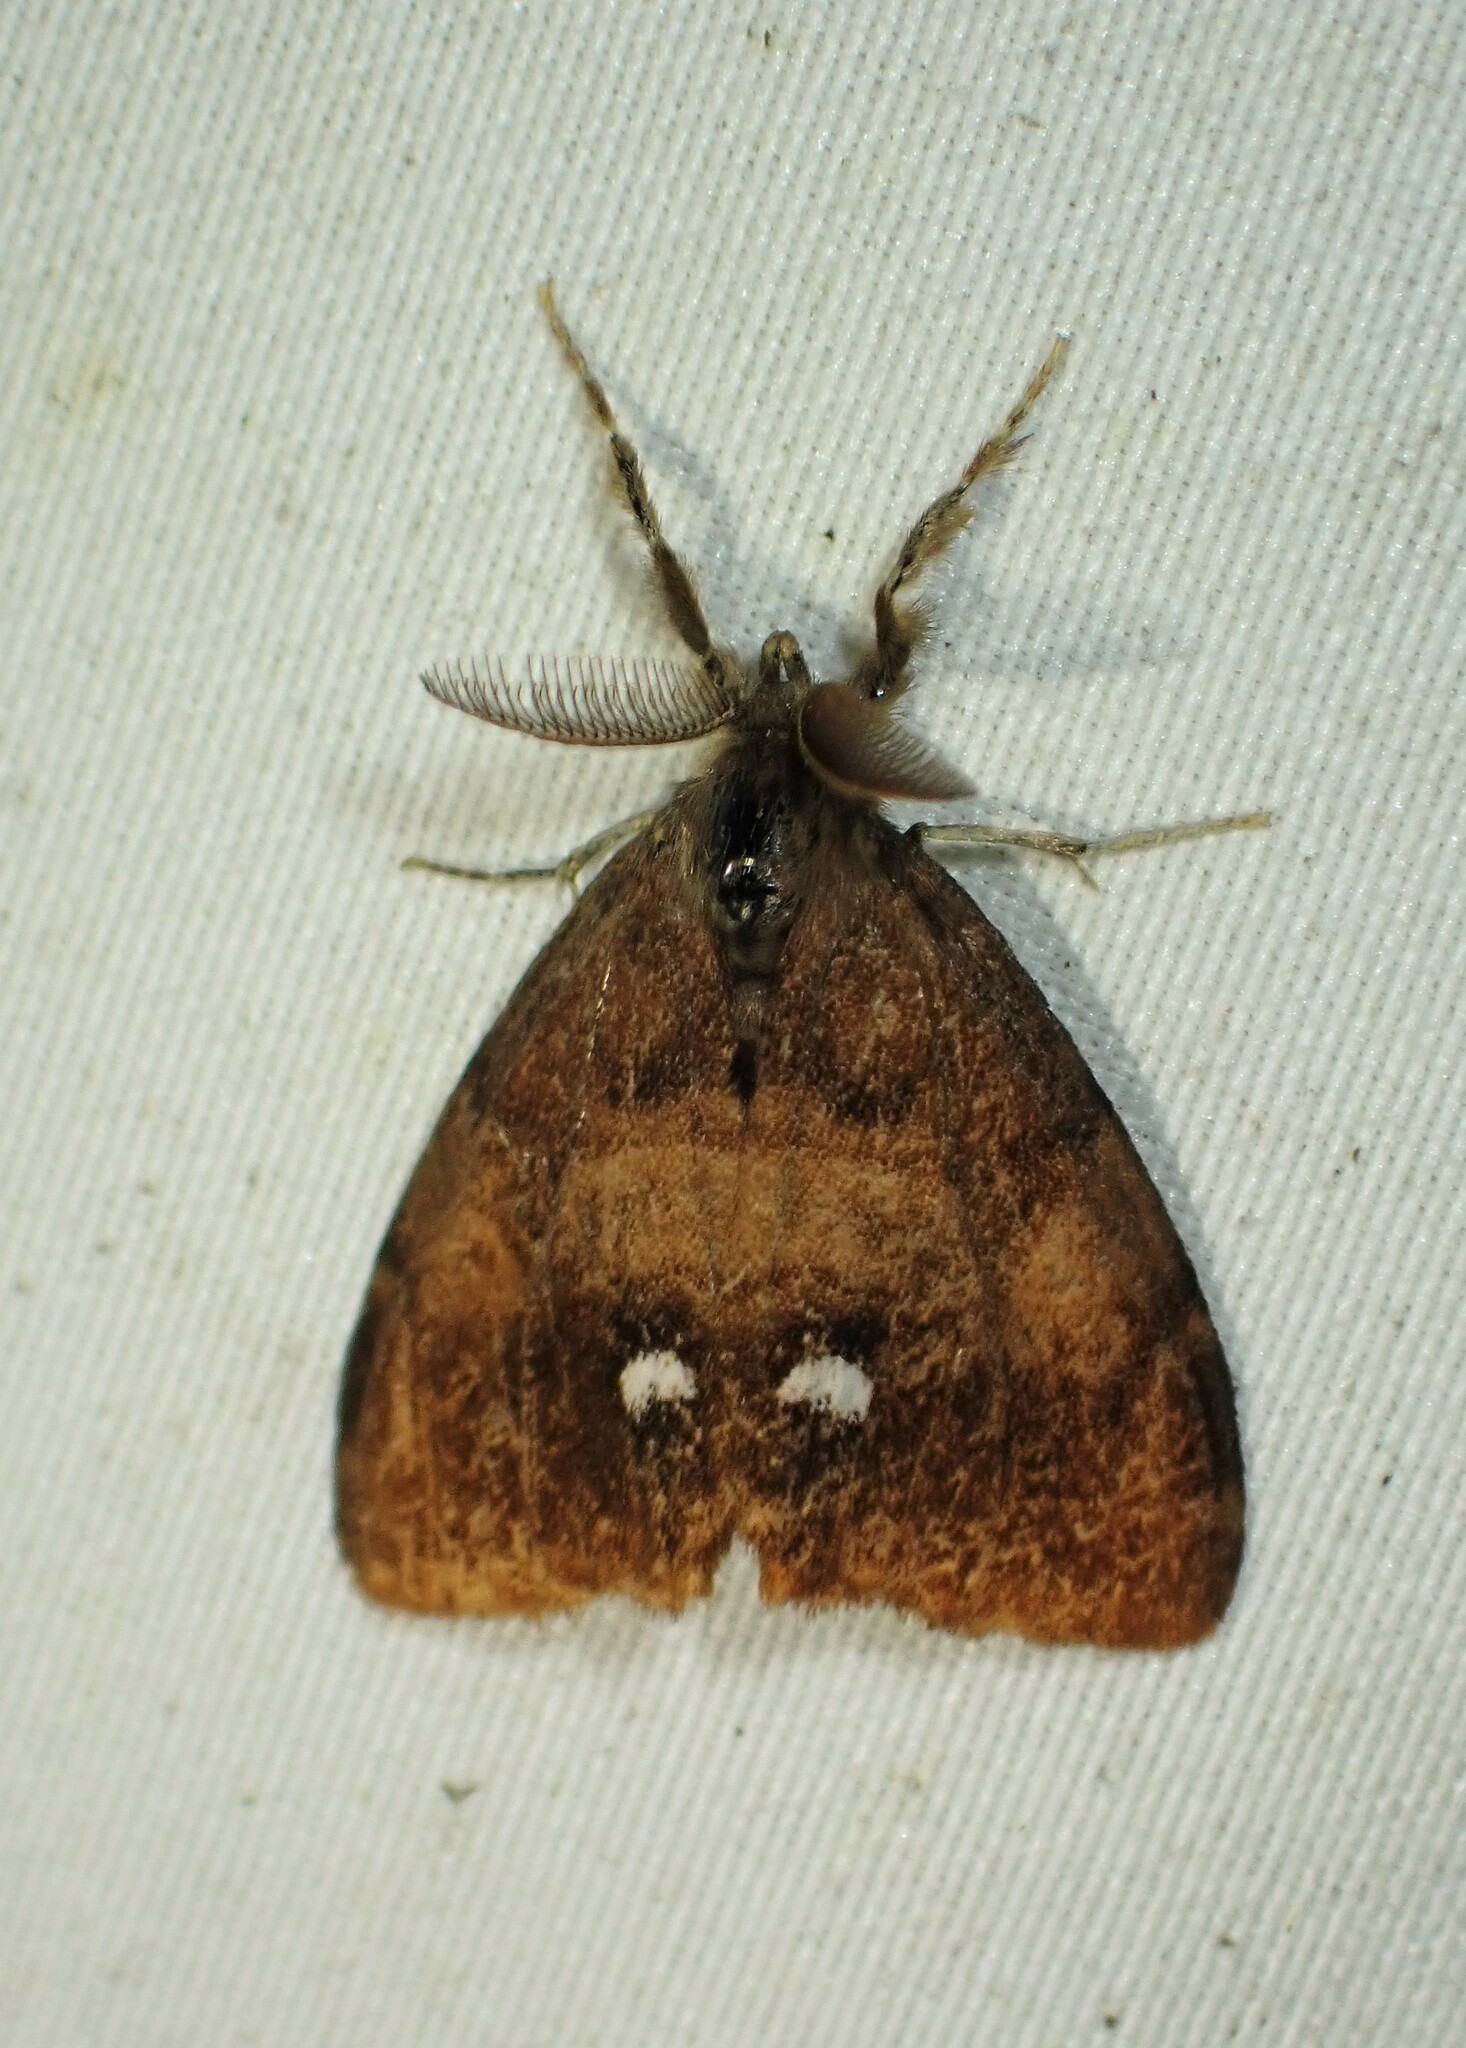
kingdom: Animalia
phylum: Arthropoda
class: Insecta
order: Lepidoptera
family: Erebidae
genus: Orgyia
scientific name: Orgyia antiqua
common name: Vapourer
